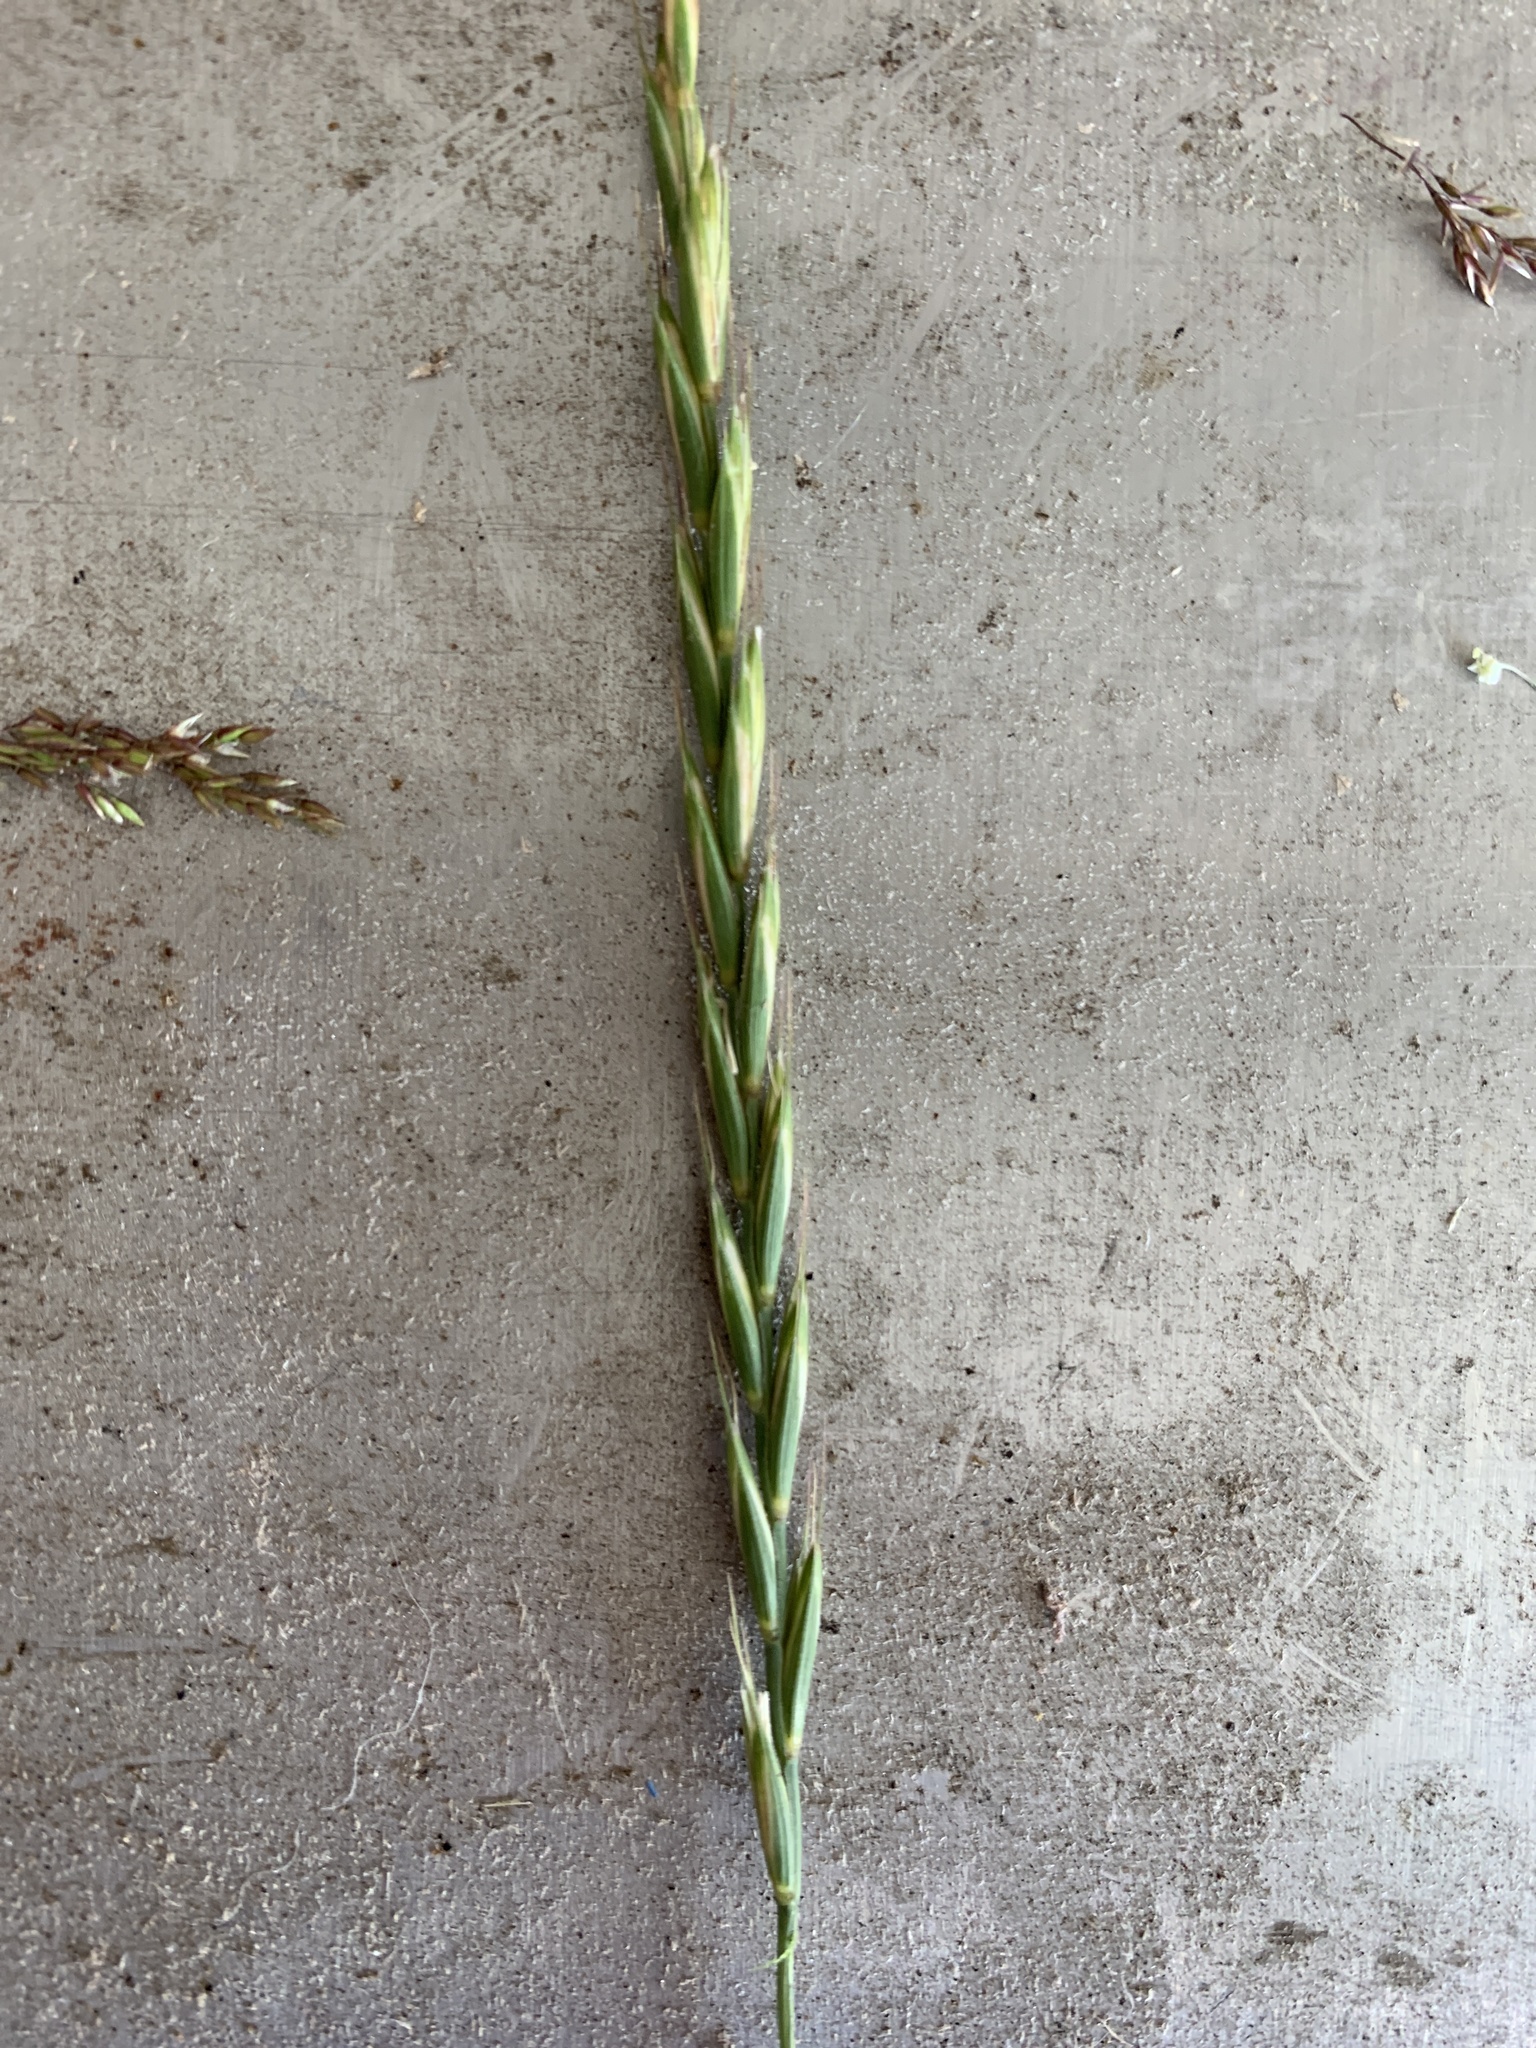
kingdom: Plantae
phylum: Tracheophyta
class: Liliopsida
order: Poales
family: Poaceae
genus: Elymus
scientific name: Elymus repens
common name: Quackgrass
